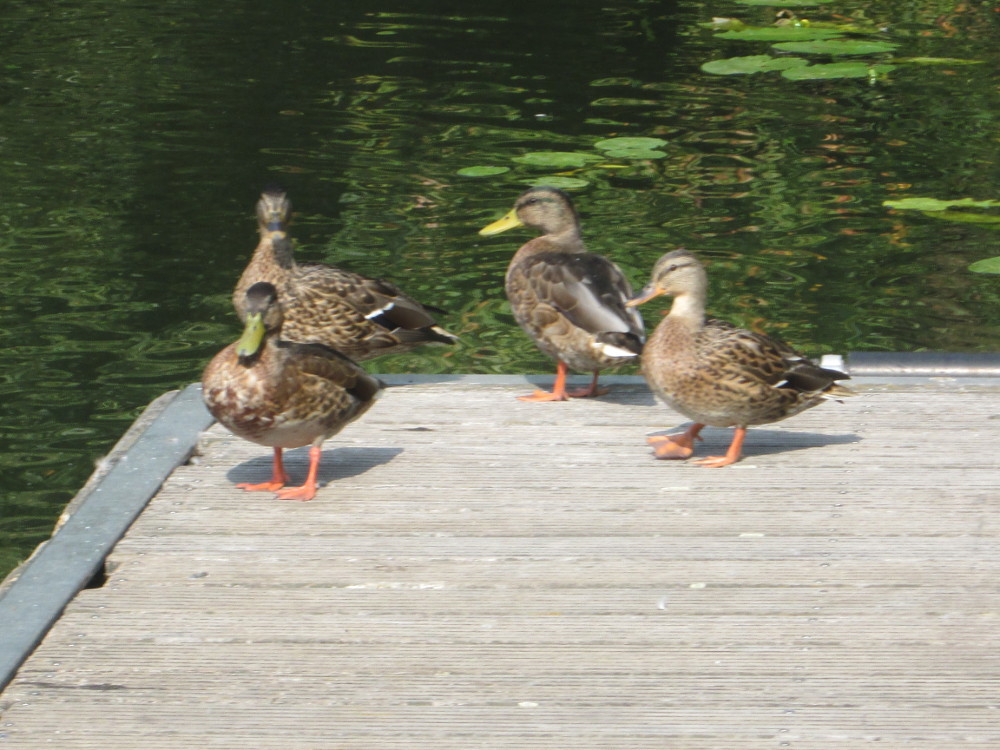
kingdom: Animalia
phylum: Chordata
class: Aves
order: Anseriformes
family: Anatidae
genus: Anas
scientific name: Anas platyrhynchos
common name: Mallard
